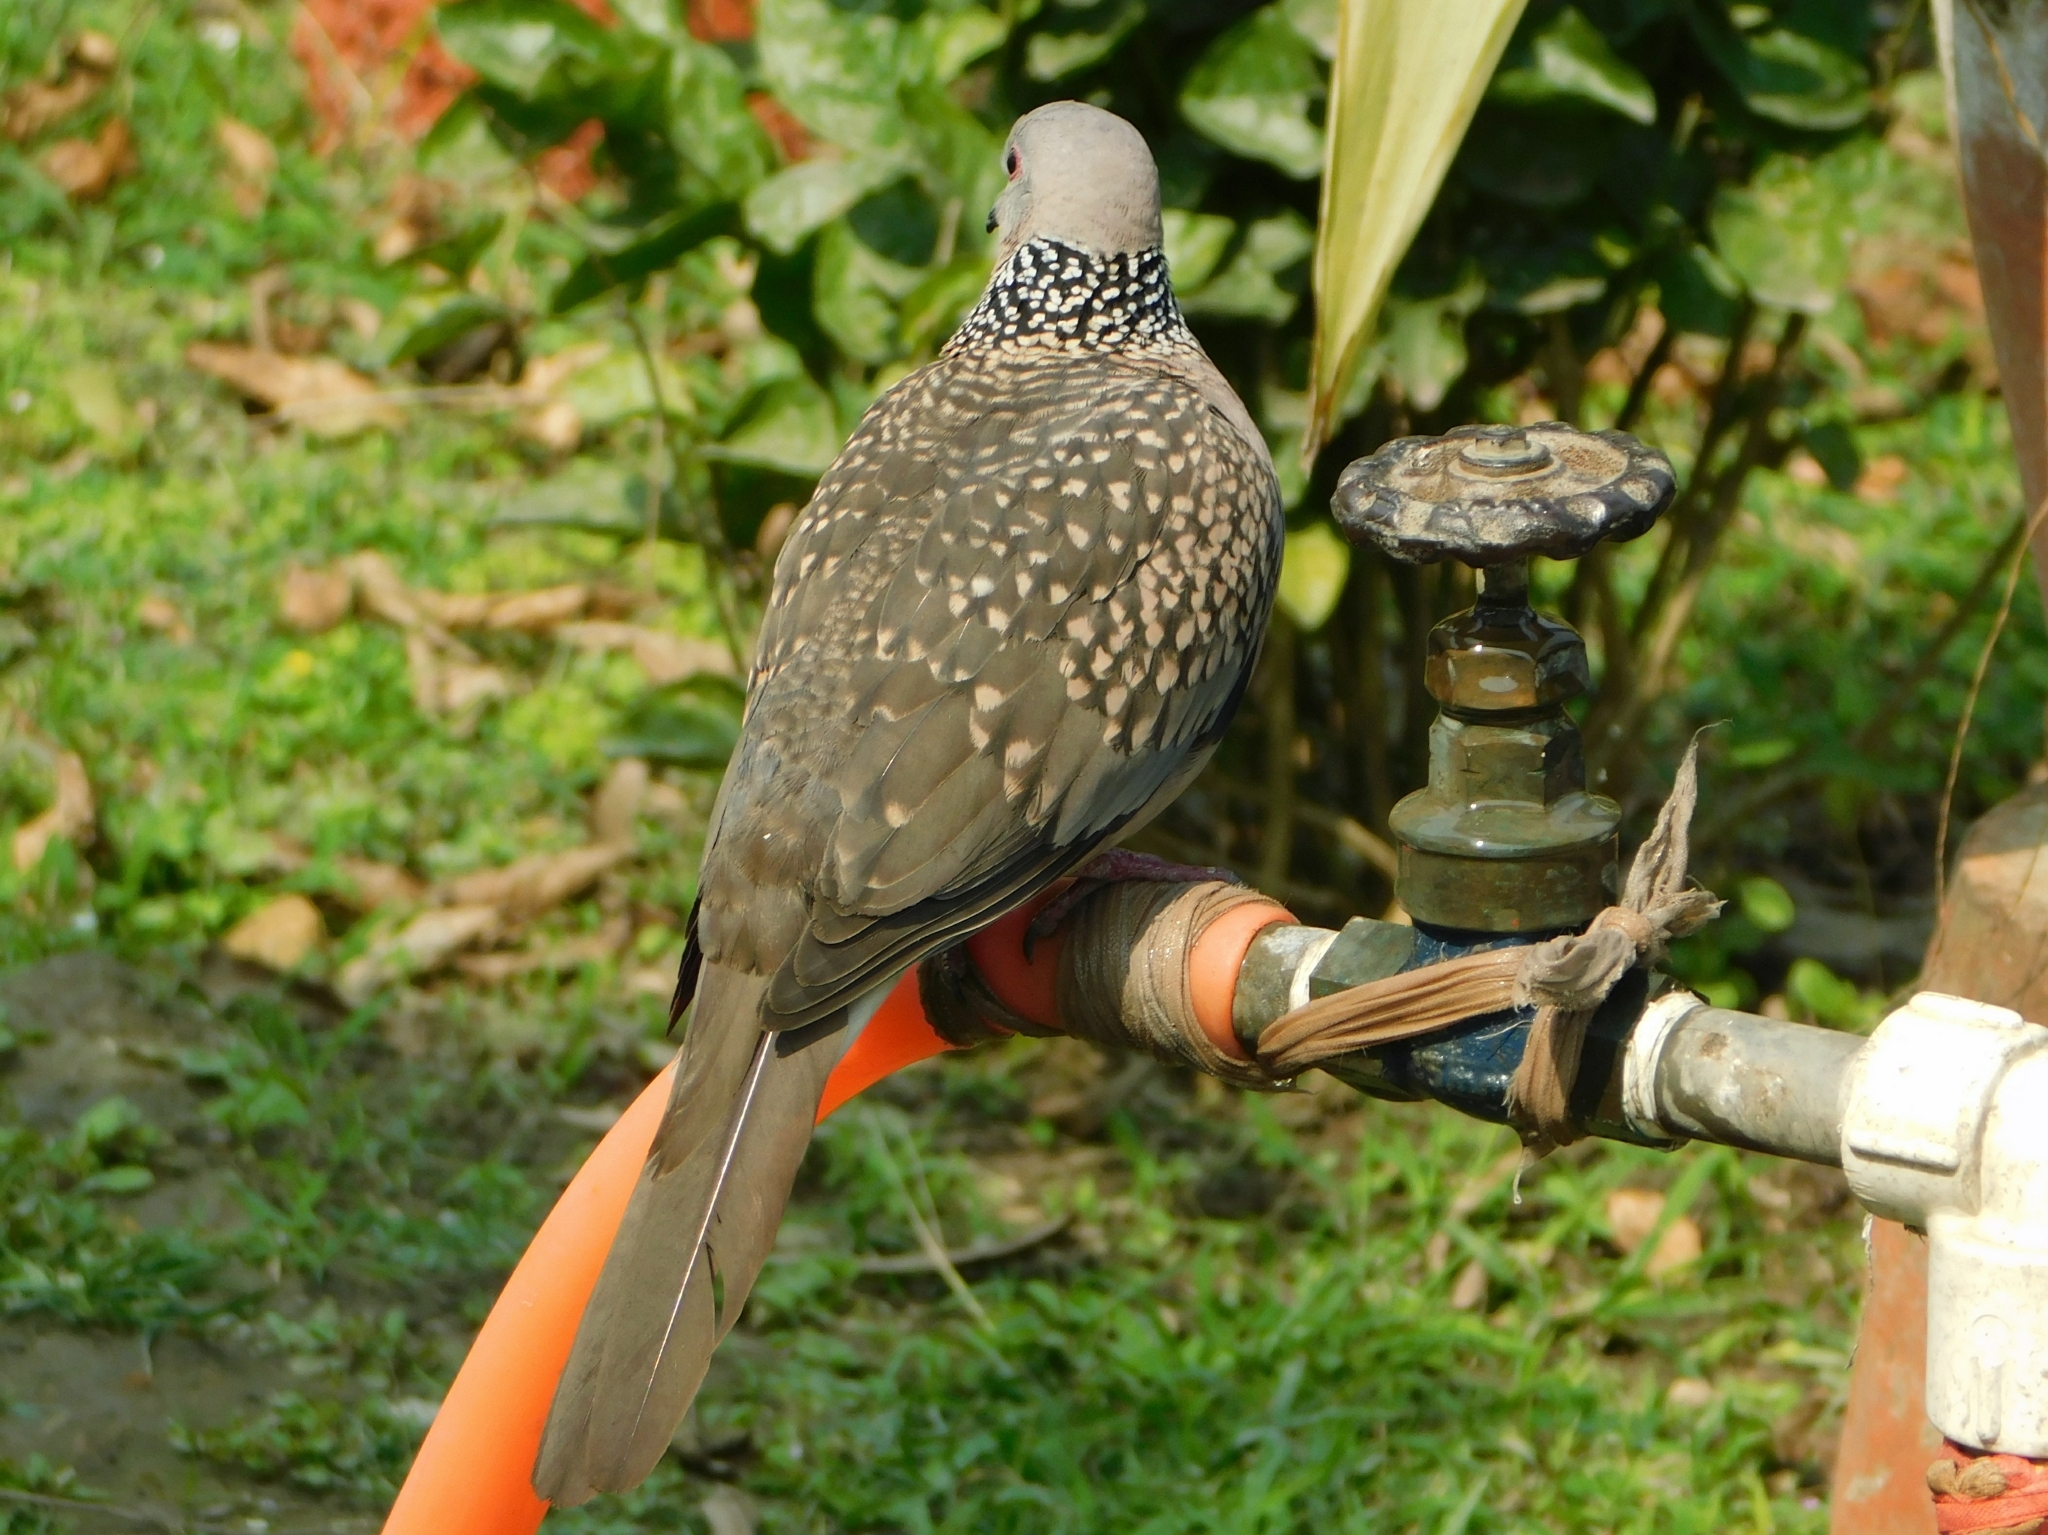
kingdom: Animalia
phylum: Chordata
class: Aves
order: Columbiformes
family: Columbidae
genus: Spilopelia
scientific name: Spilopelia chinensis
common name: Spotted dove
